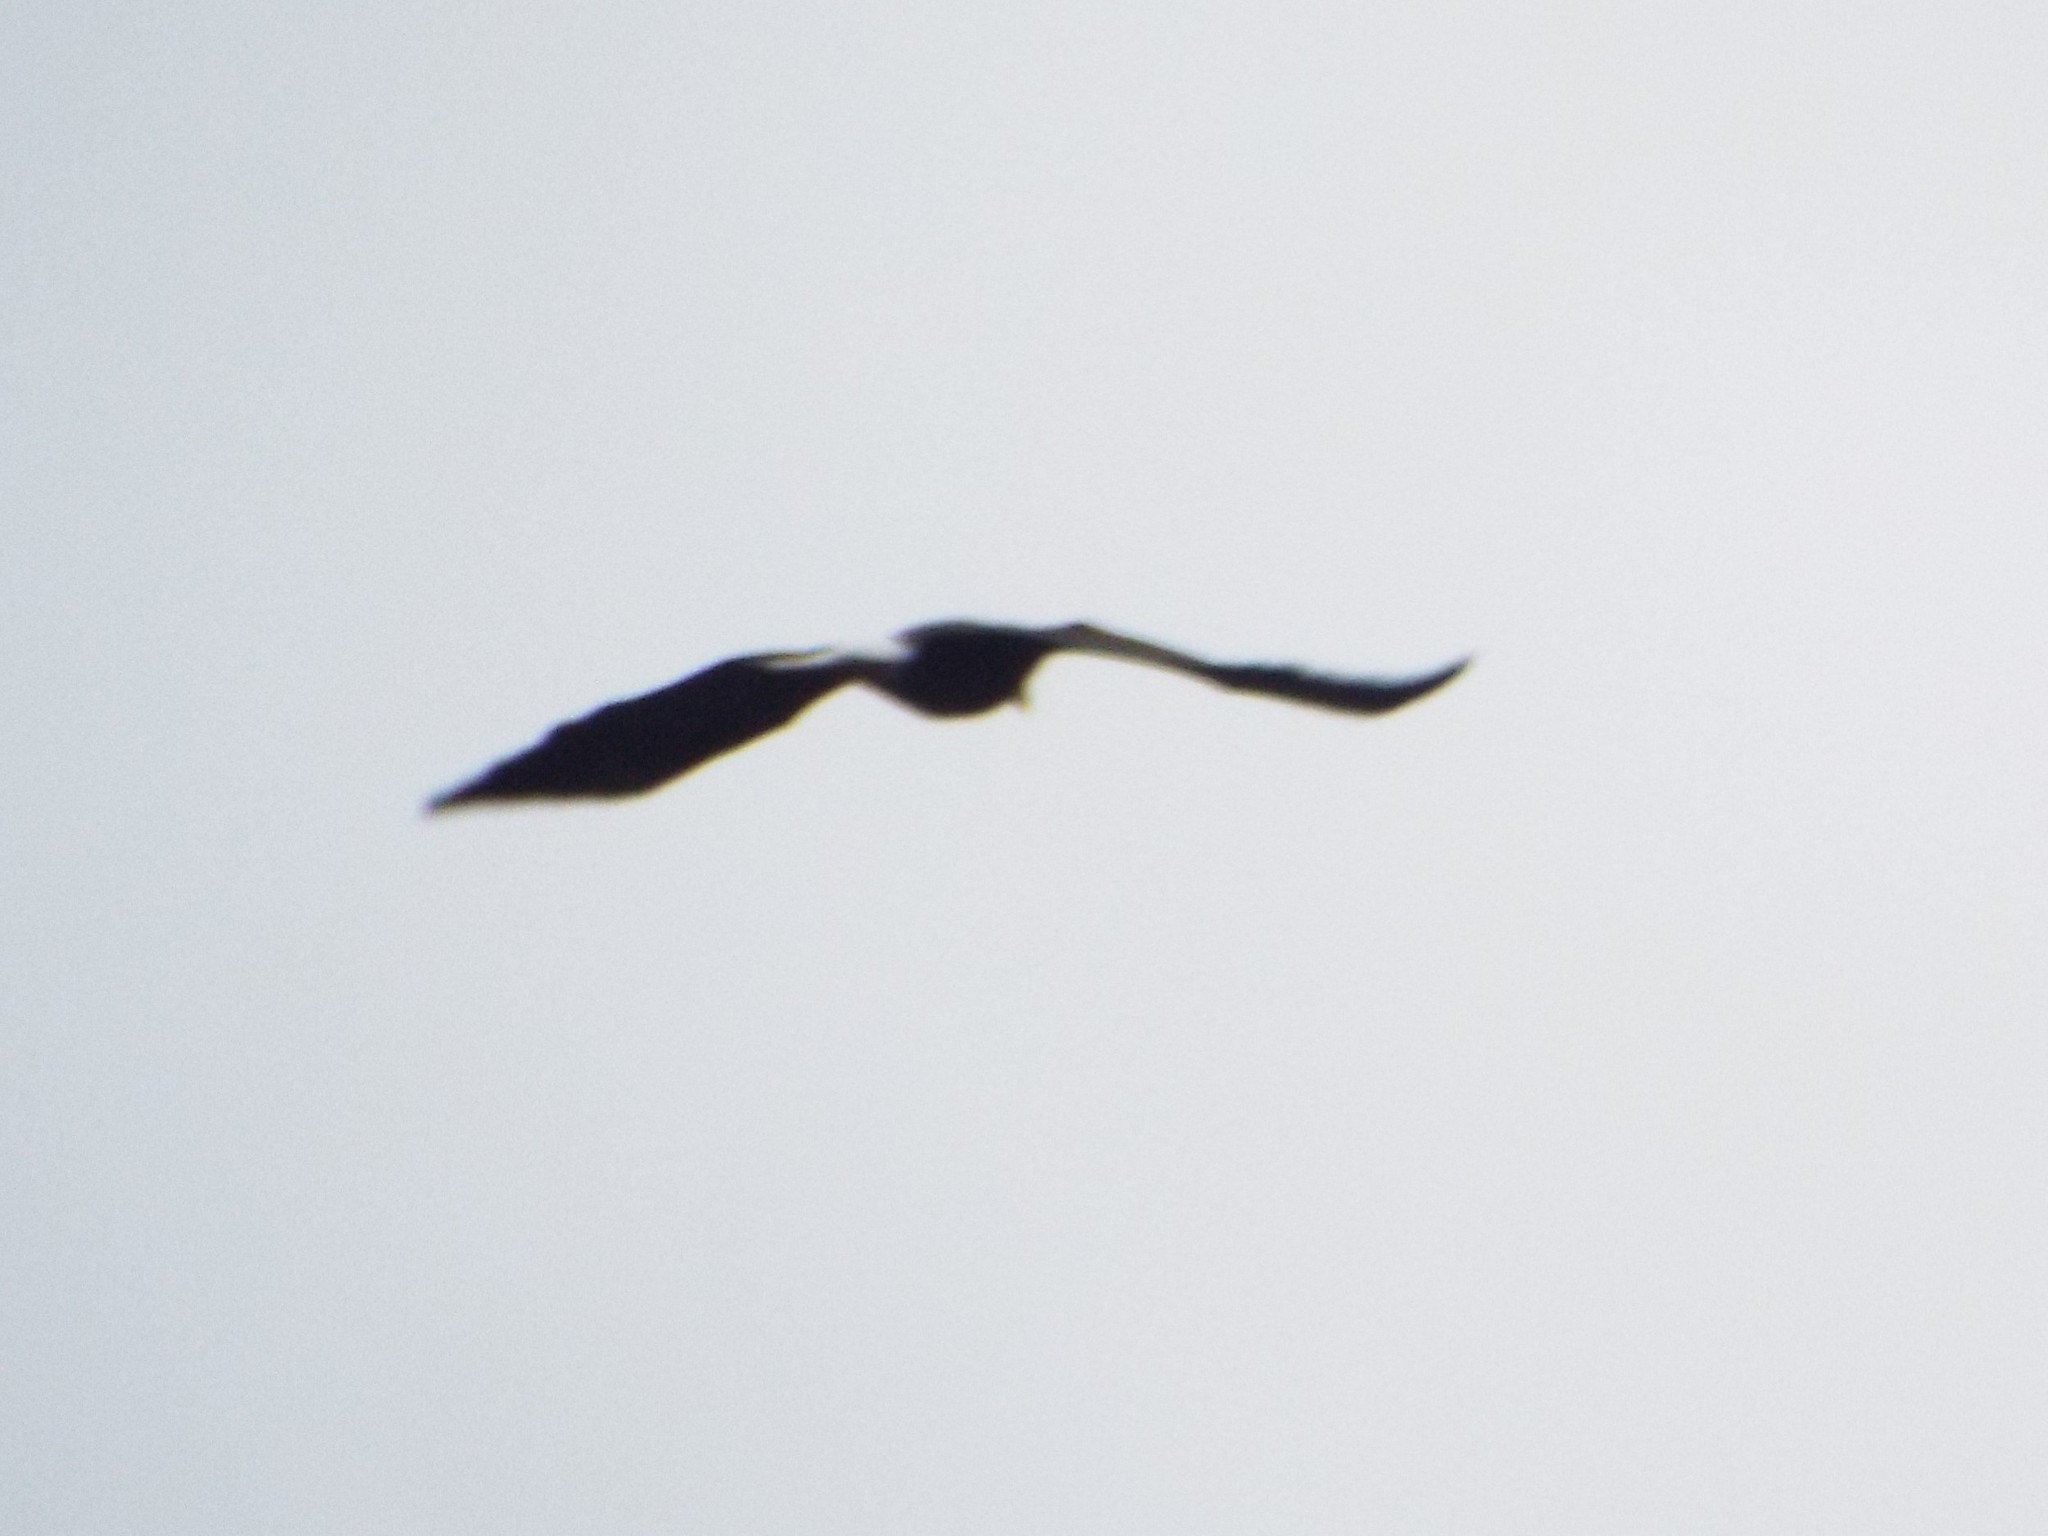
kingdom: Animalia
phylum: Chordata
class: Aves
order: Accipitriformes
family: Accipitridae
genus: Haliaeetus
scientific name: Haliaeetus leucocephalus
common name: Bald eagle
